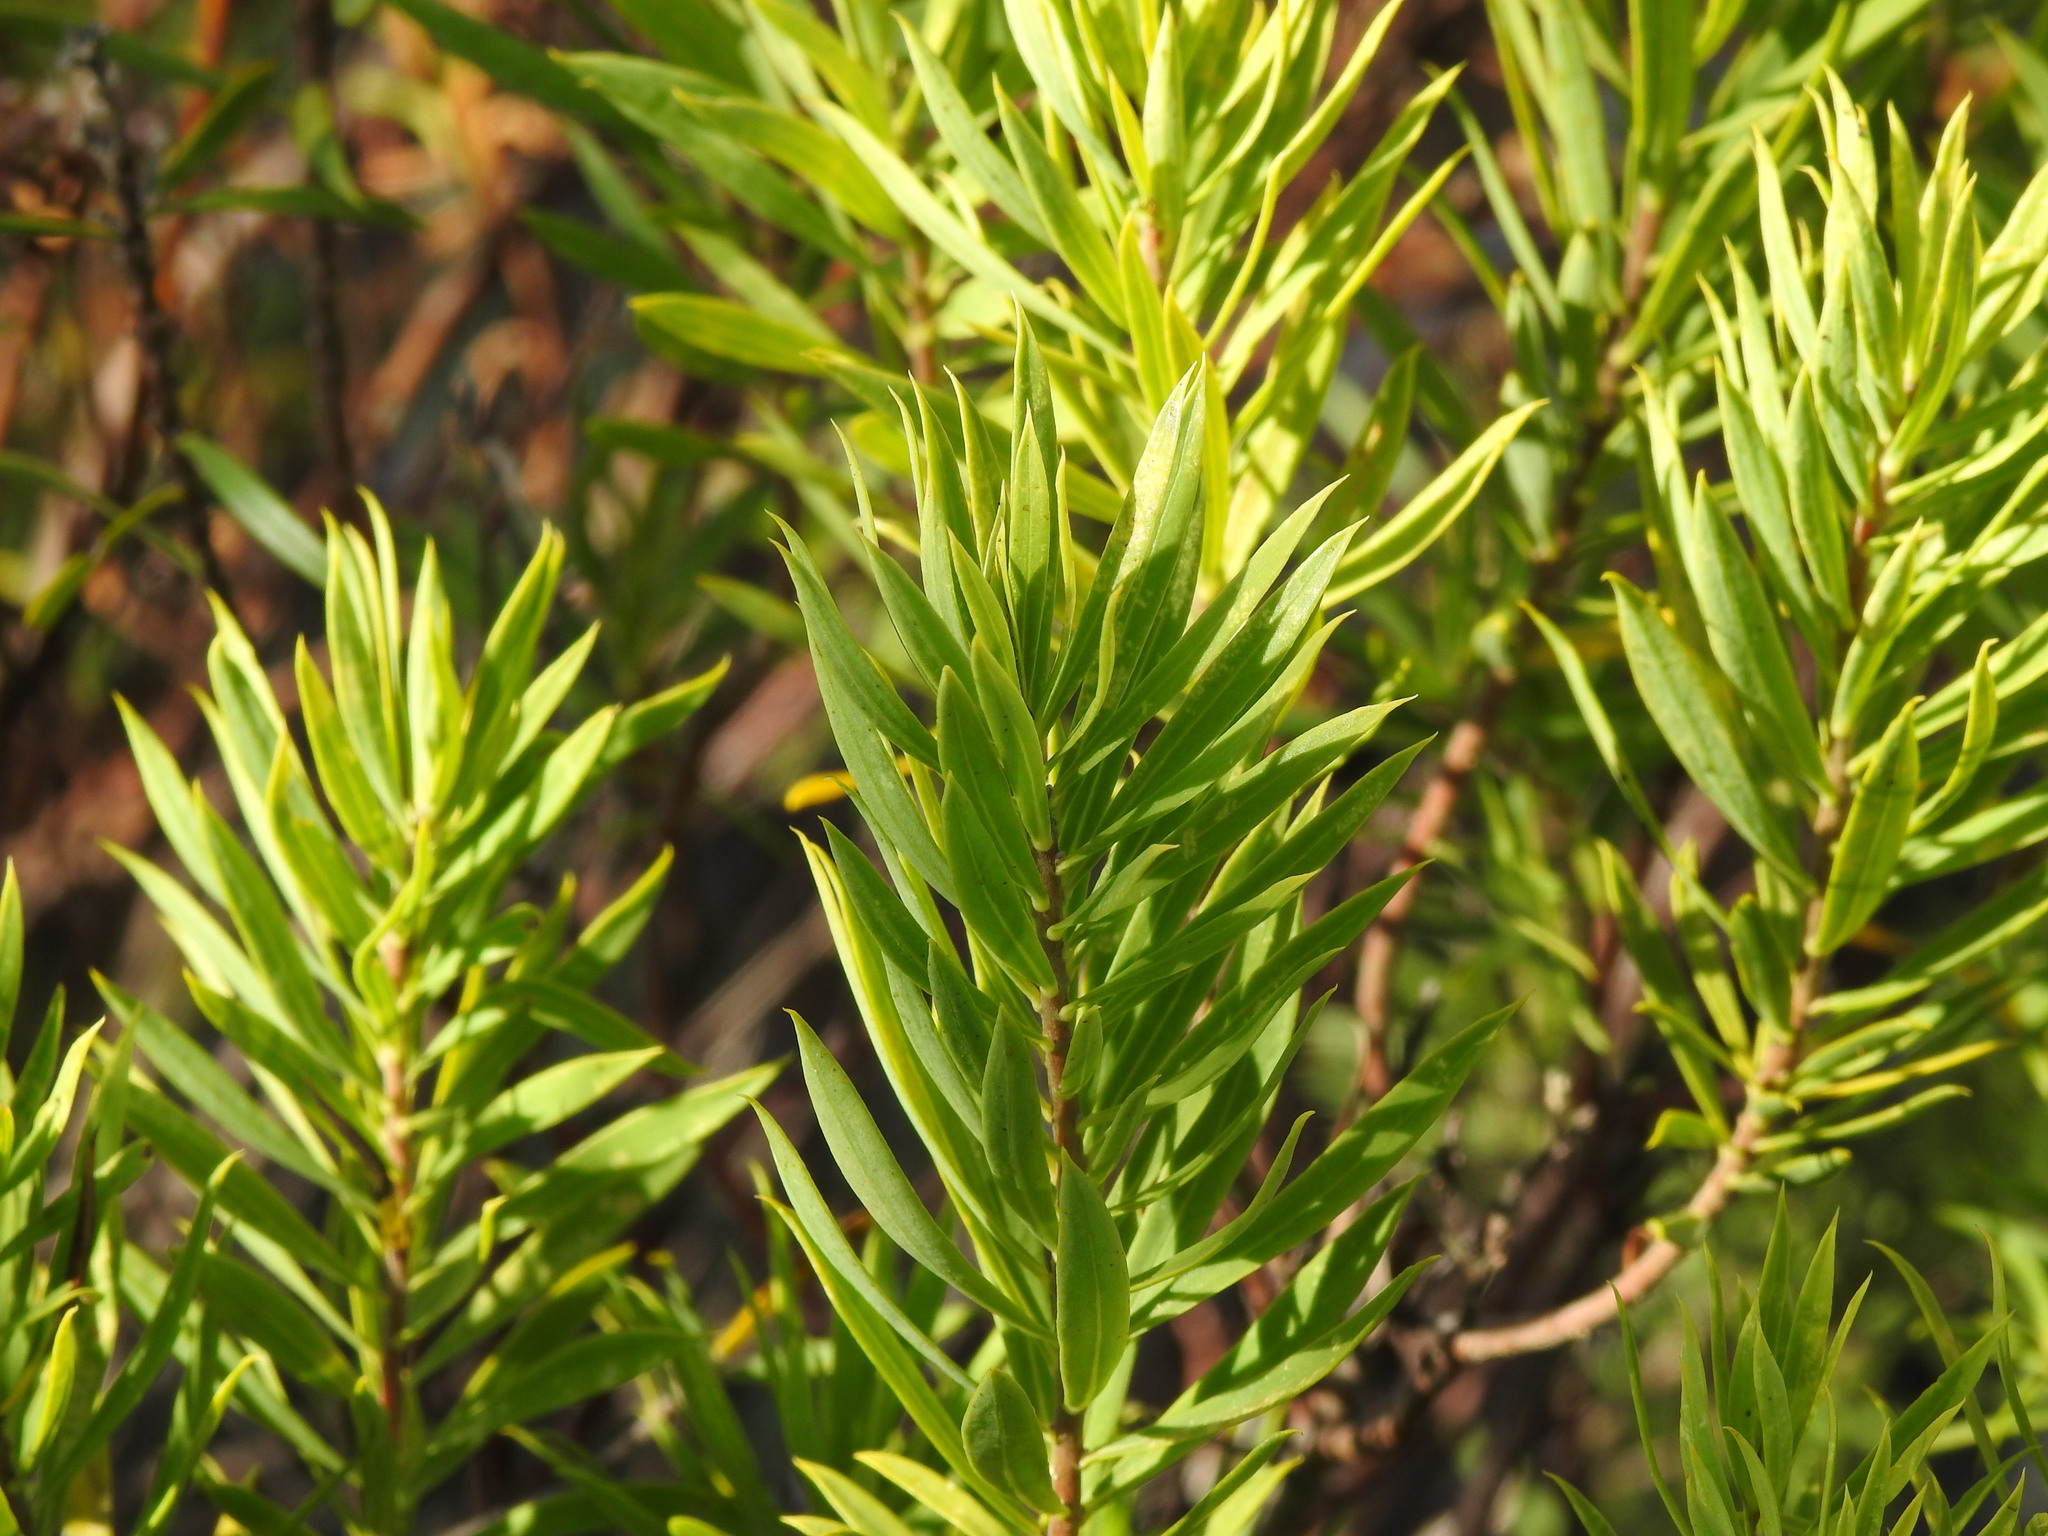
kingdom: Plantae
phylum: Tracheophyta
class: Magnoliopsida
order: Malvales
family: Thymelaeaceae
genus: Daphne
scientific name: Daphne gnidium
